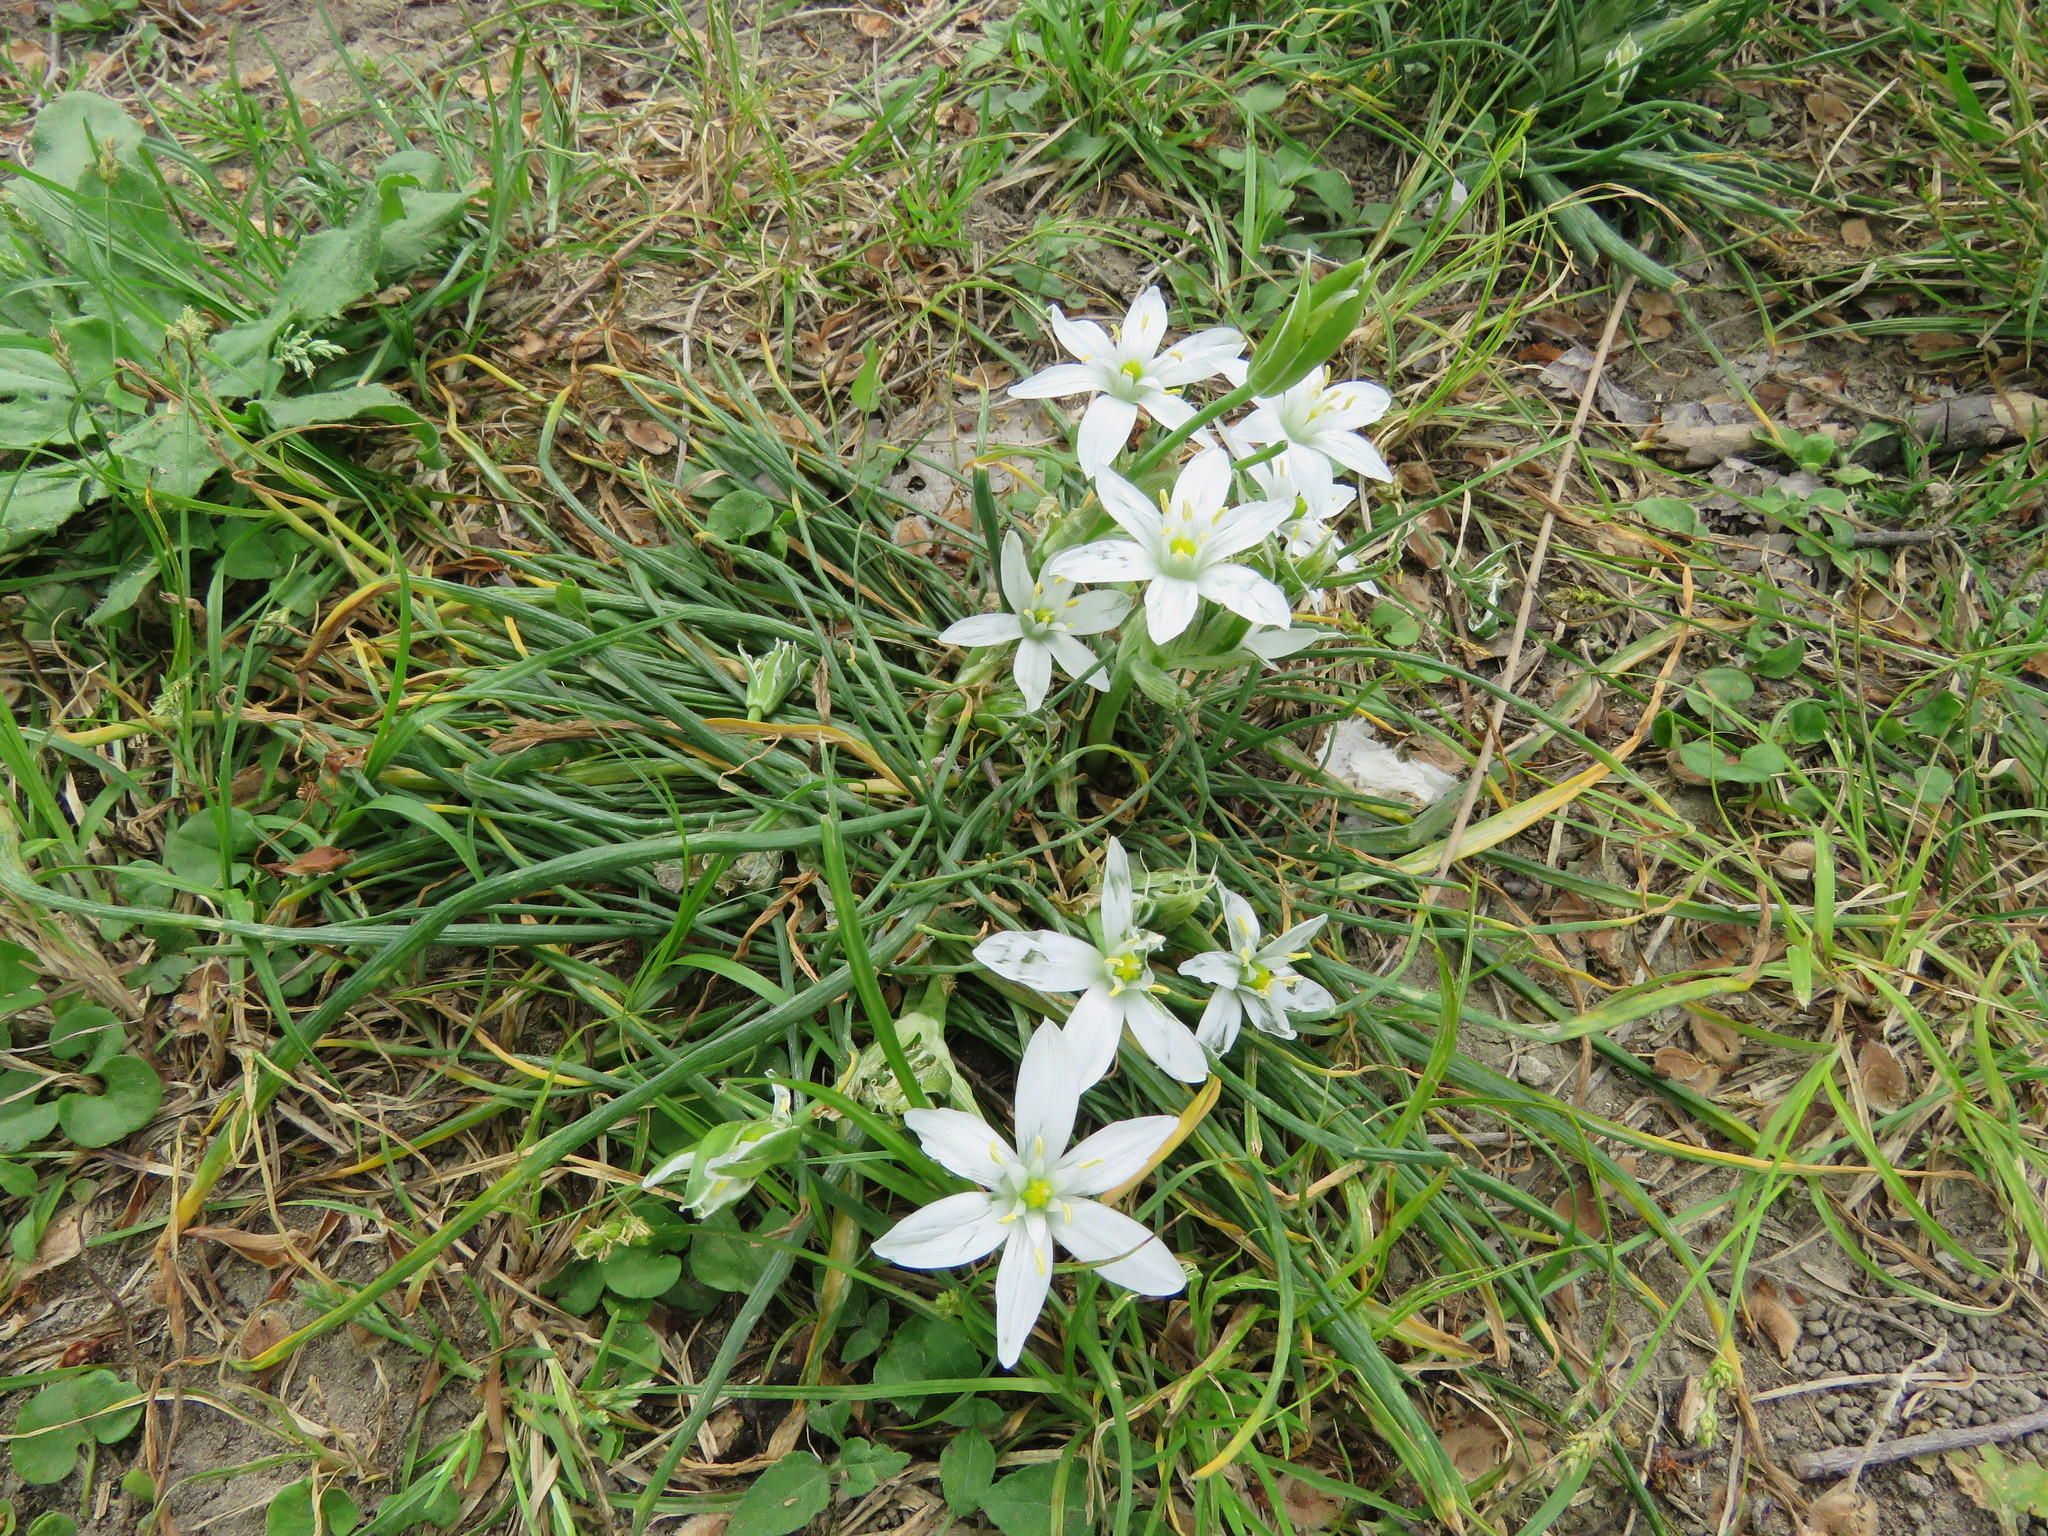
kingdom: Plantae
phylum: Tracheophyta
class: Liliopsida
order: Asparagales
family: Asparagaceae
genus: Ornithogalum
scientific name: Ornithogalum umbellatum
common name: Garden star-of-bethlehem
